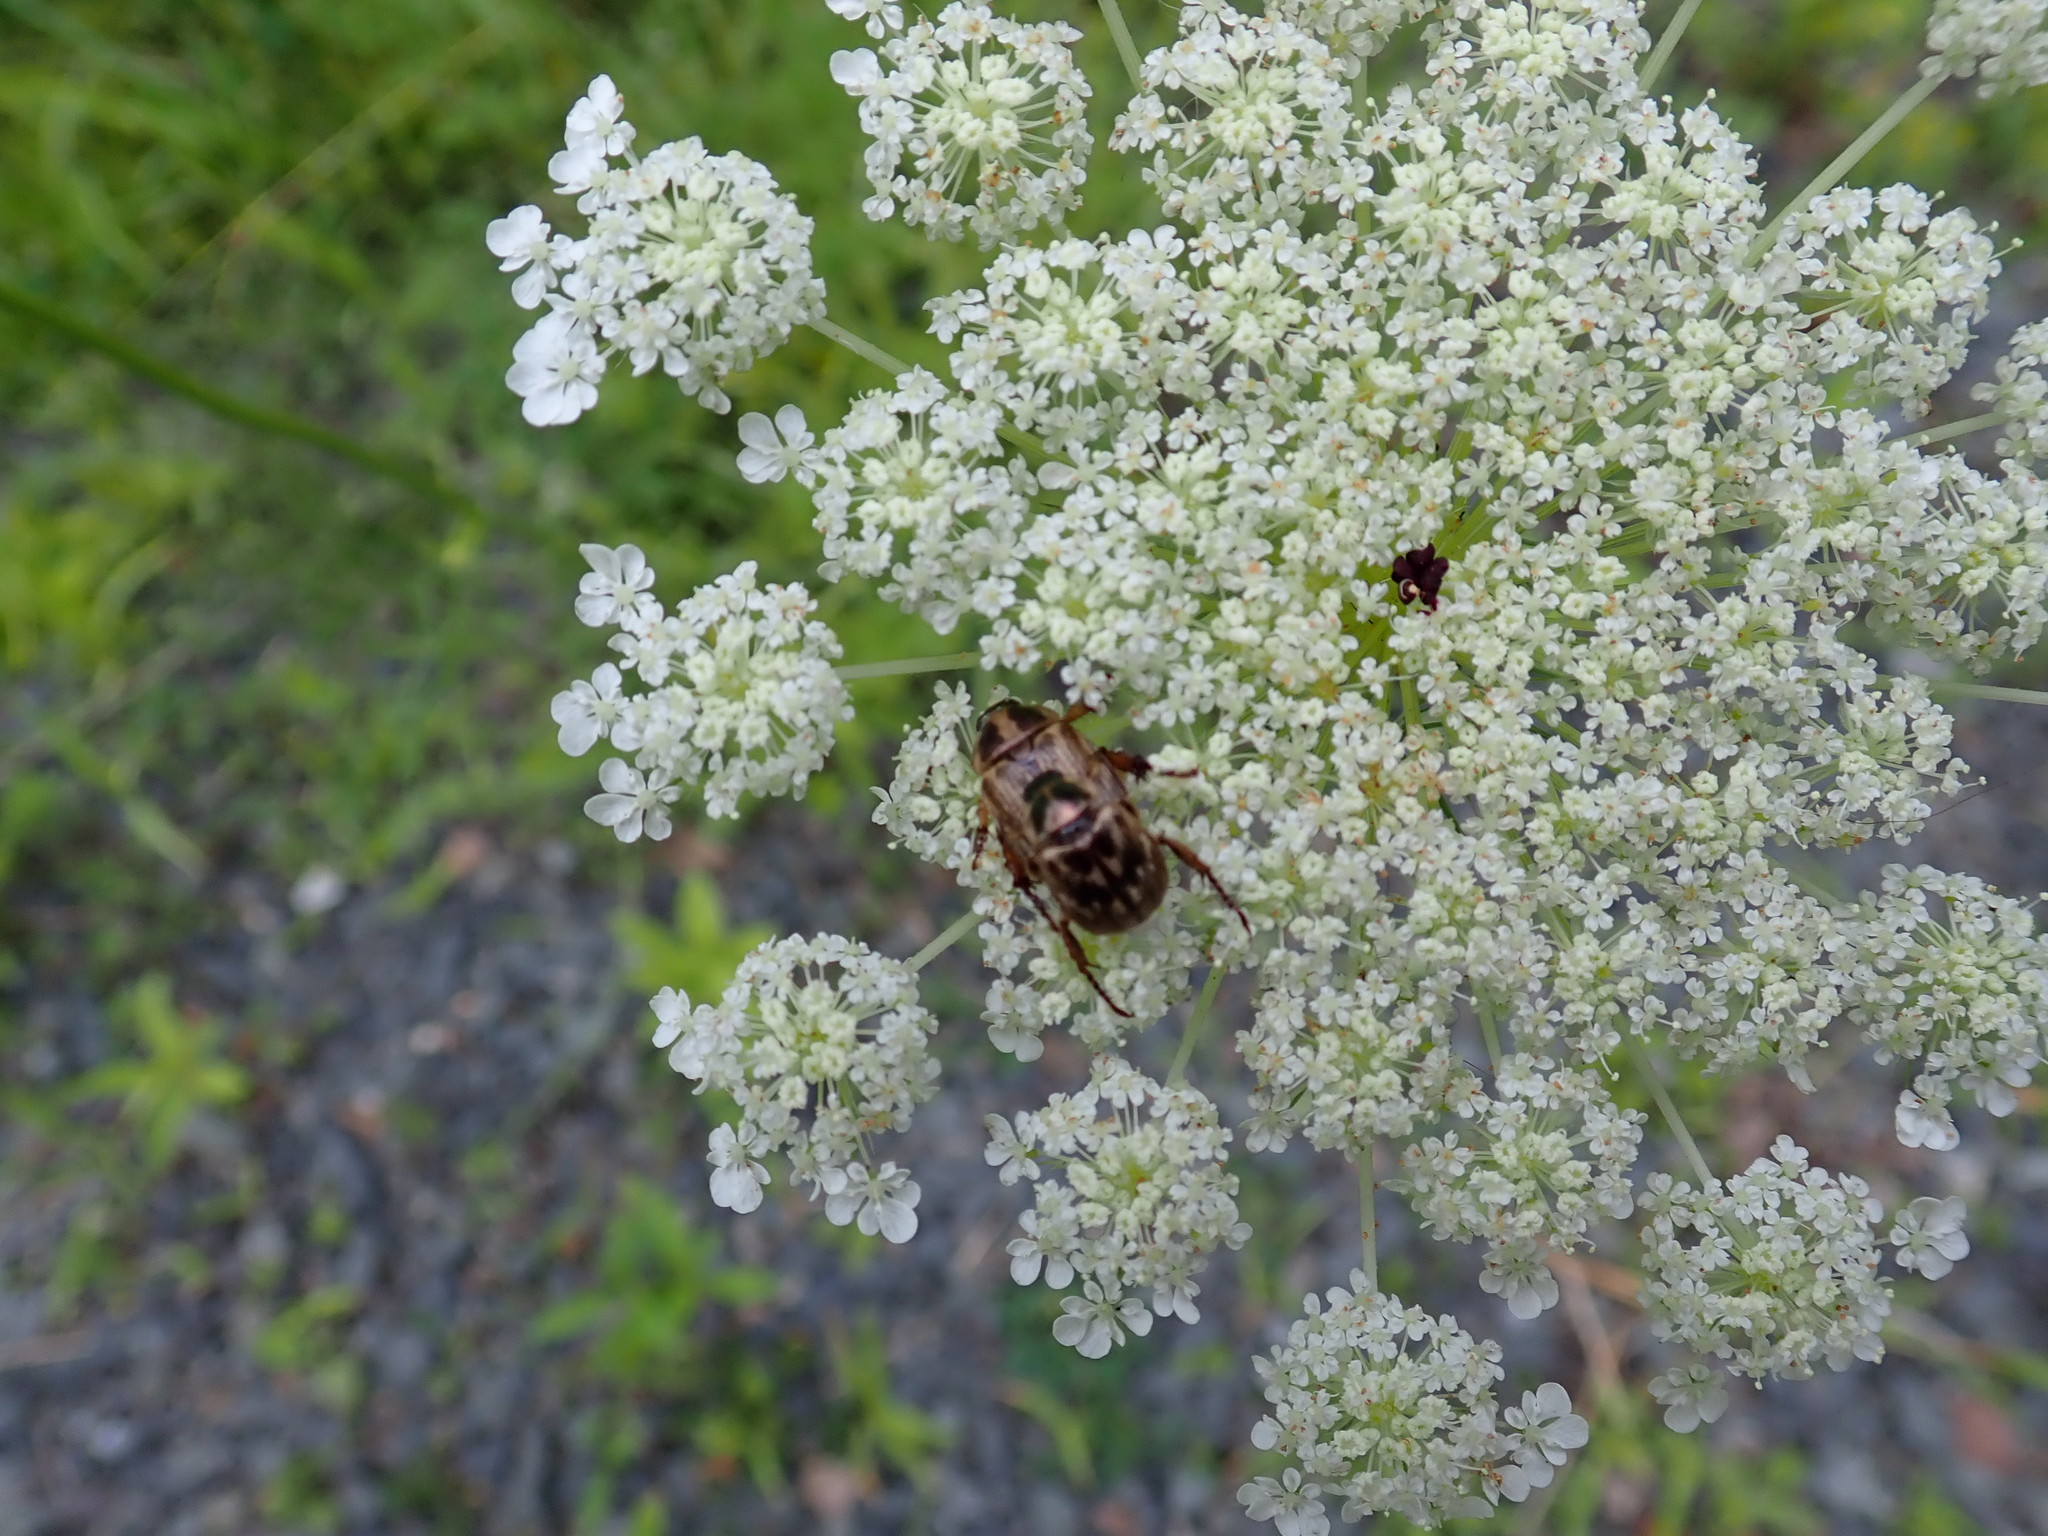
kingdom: Animalia
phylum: Arthropoda
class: Insecta
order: Coleoptera
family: Scarabaeidae
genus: Exomala
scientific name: Exomala orientalis
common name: Oriental beetle
